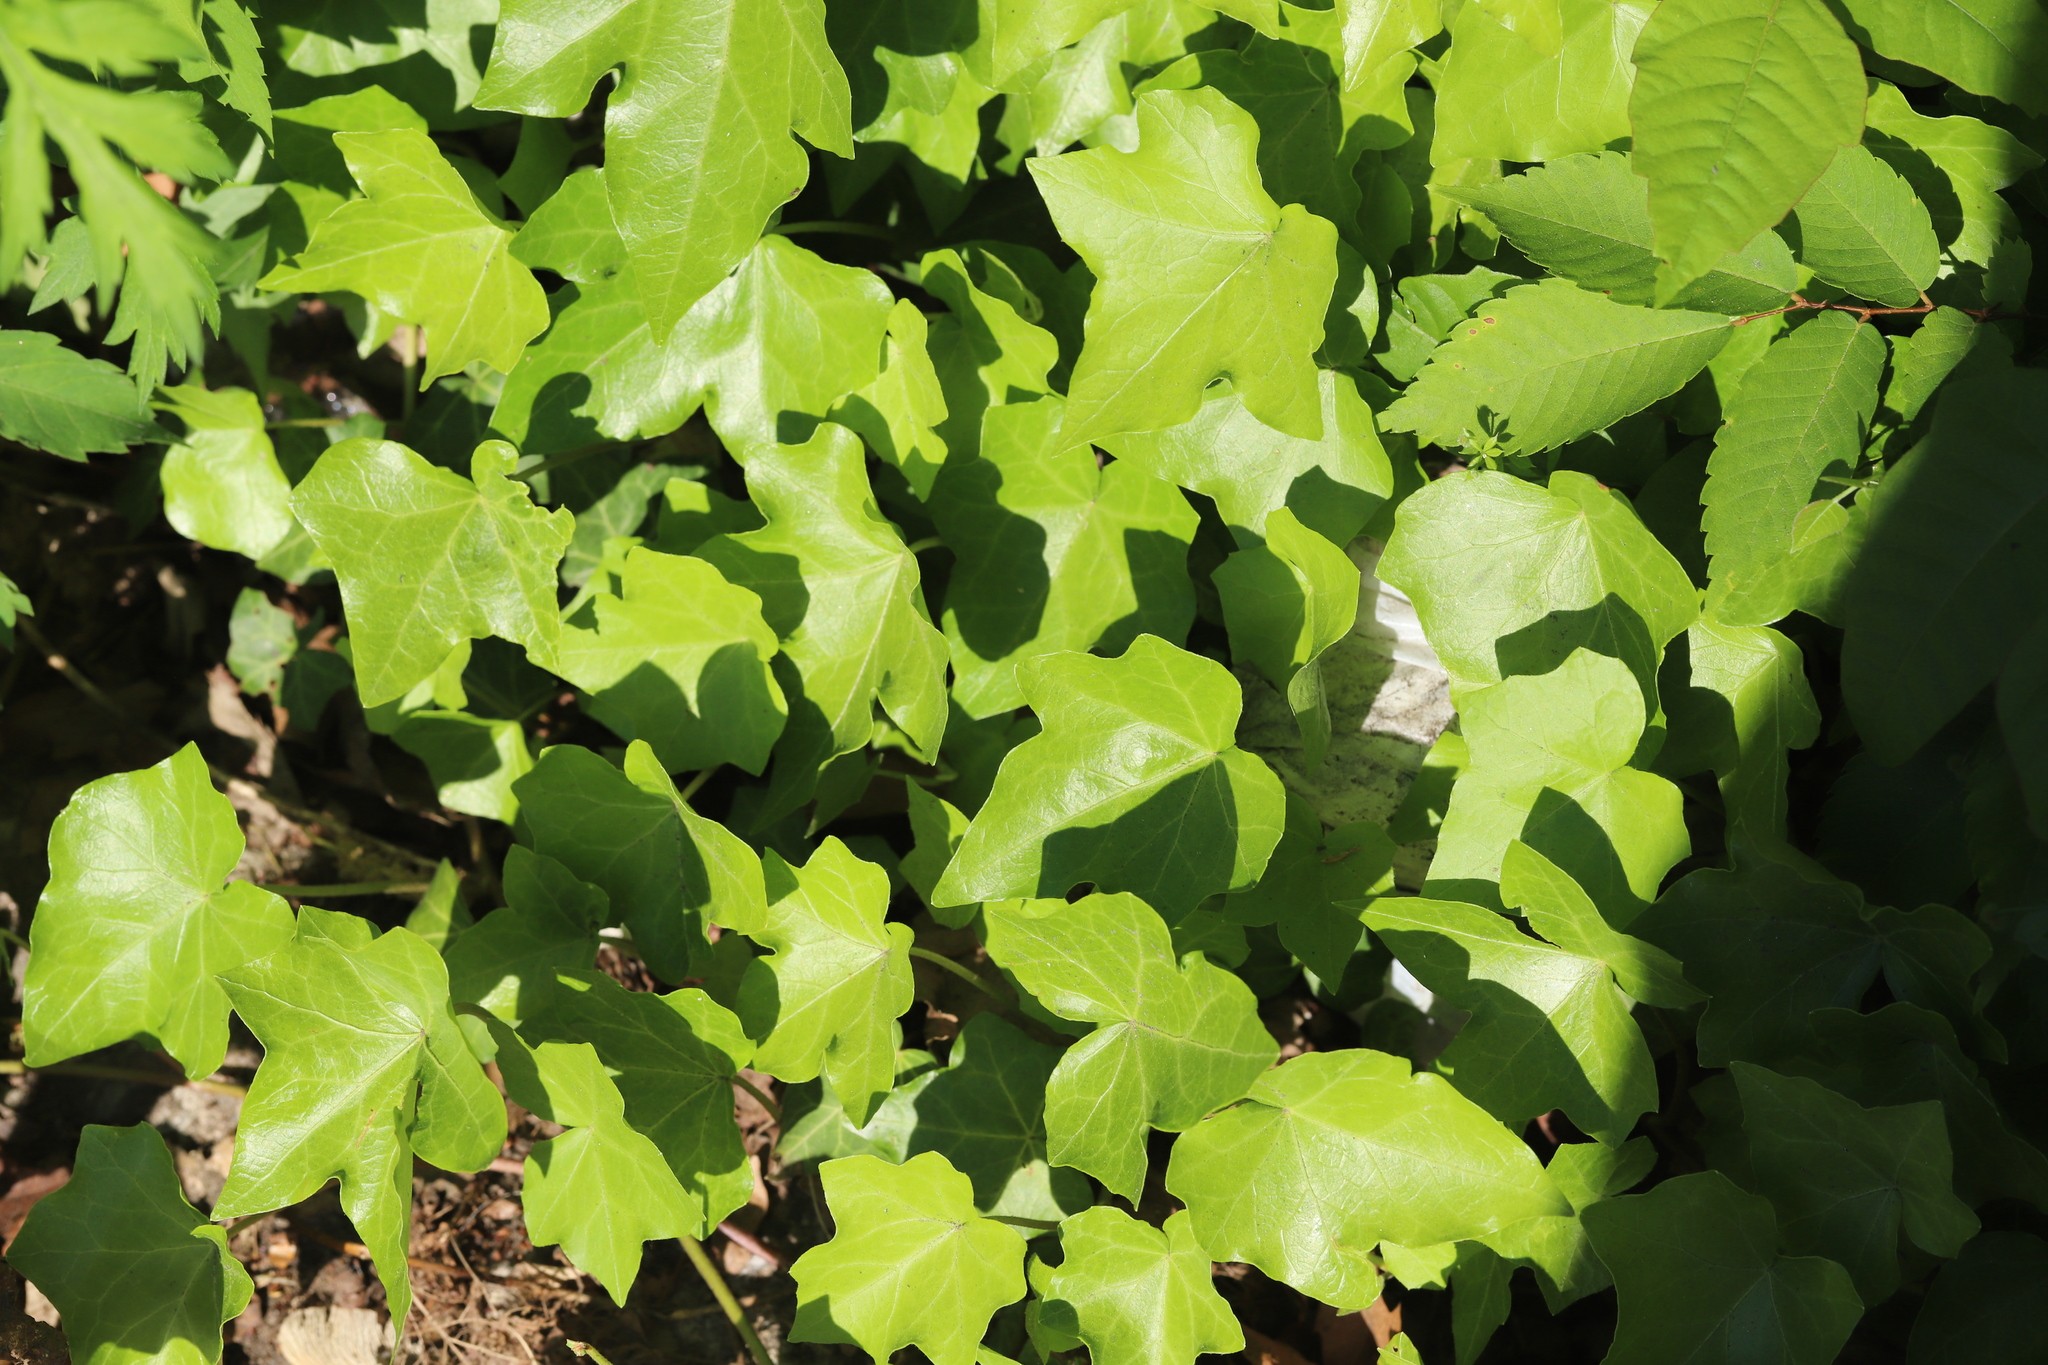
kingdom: Plantae
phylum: Tracheophyta
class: Magnoliopsida
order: Apiales
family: Araliaceae
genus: Hedera
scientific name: Hedera helix
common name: Ivy
